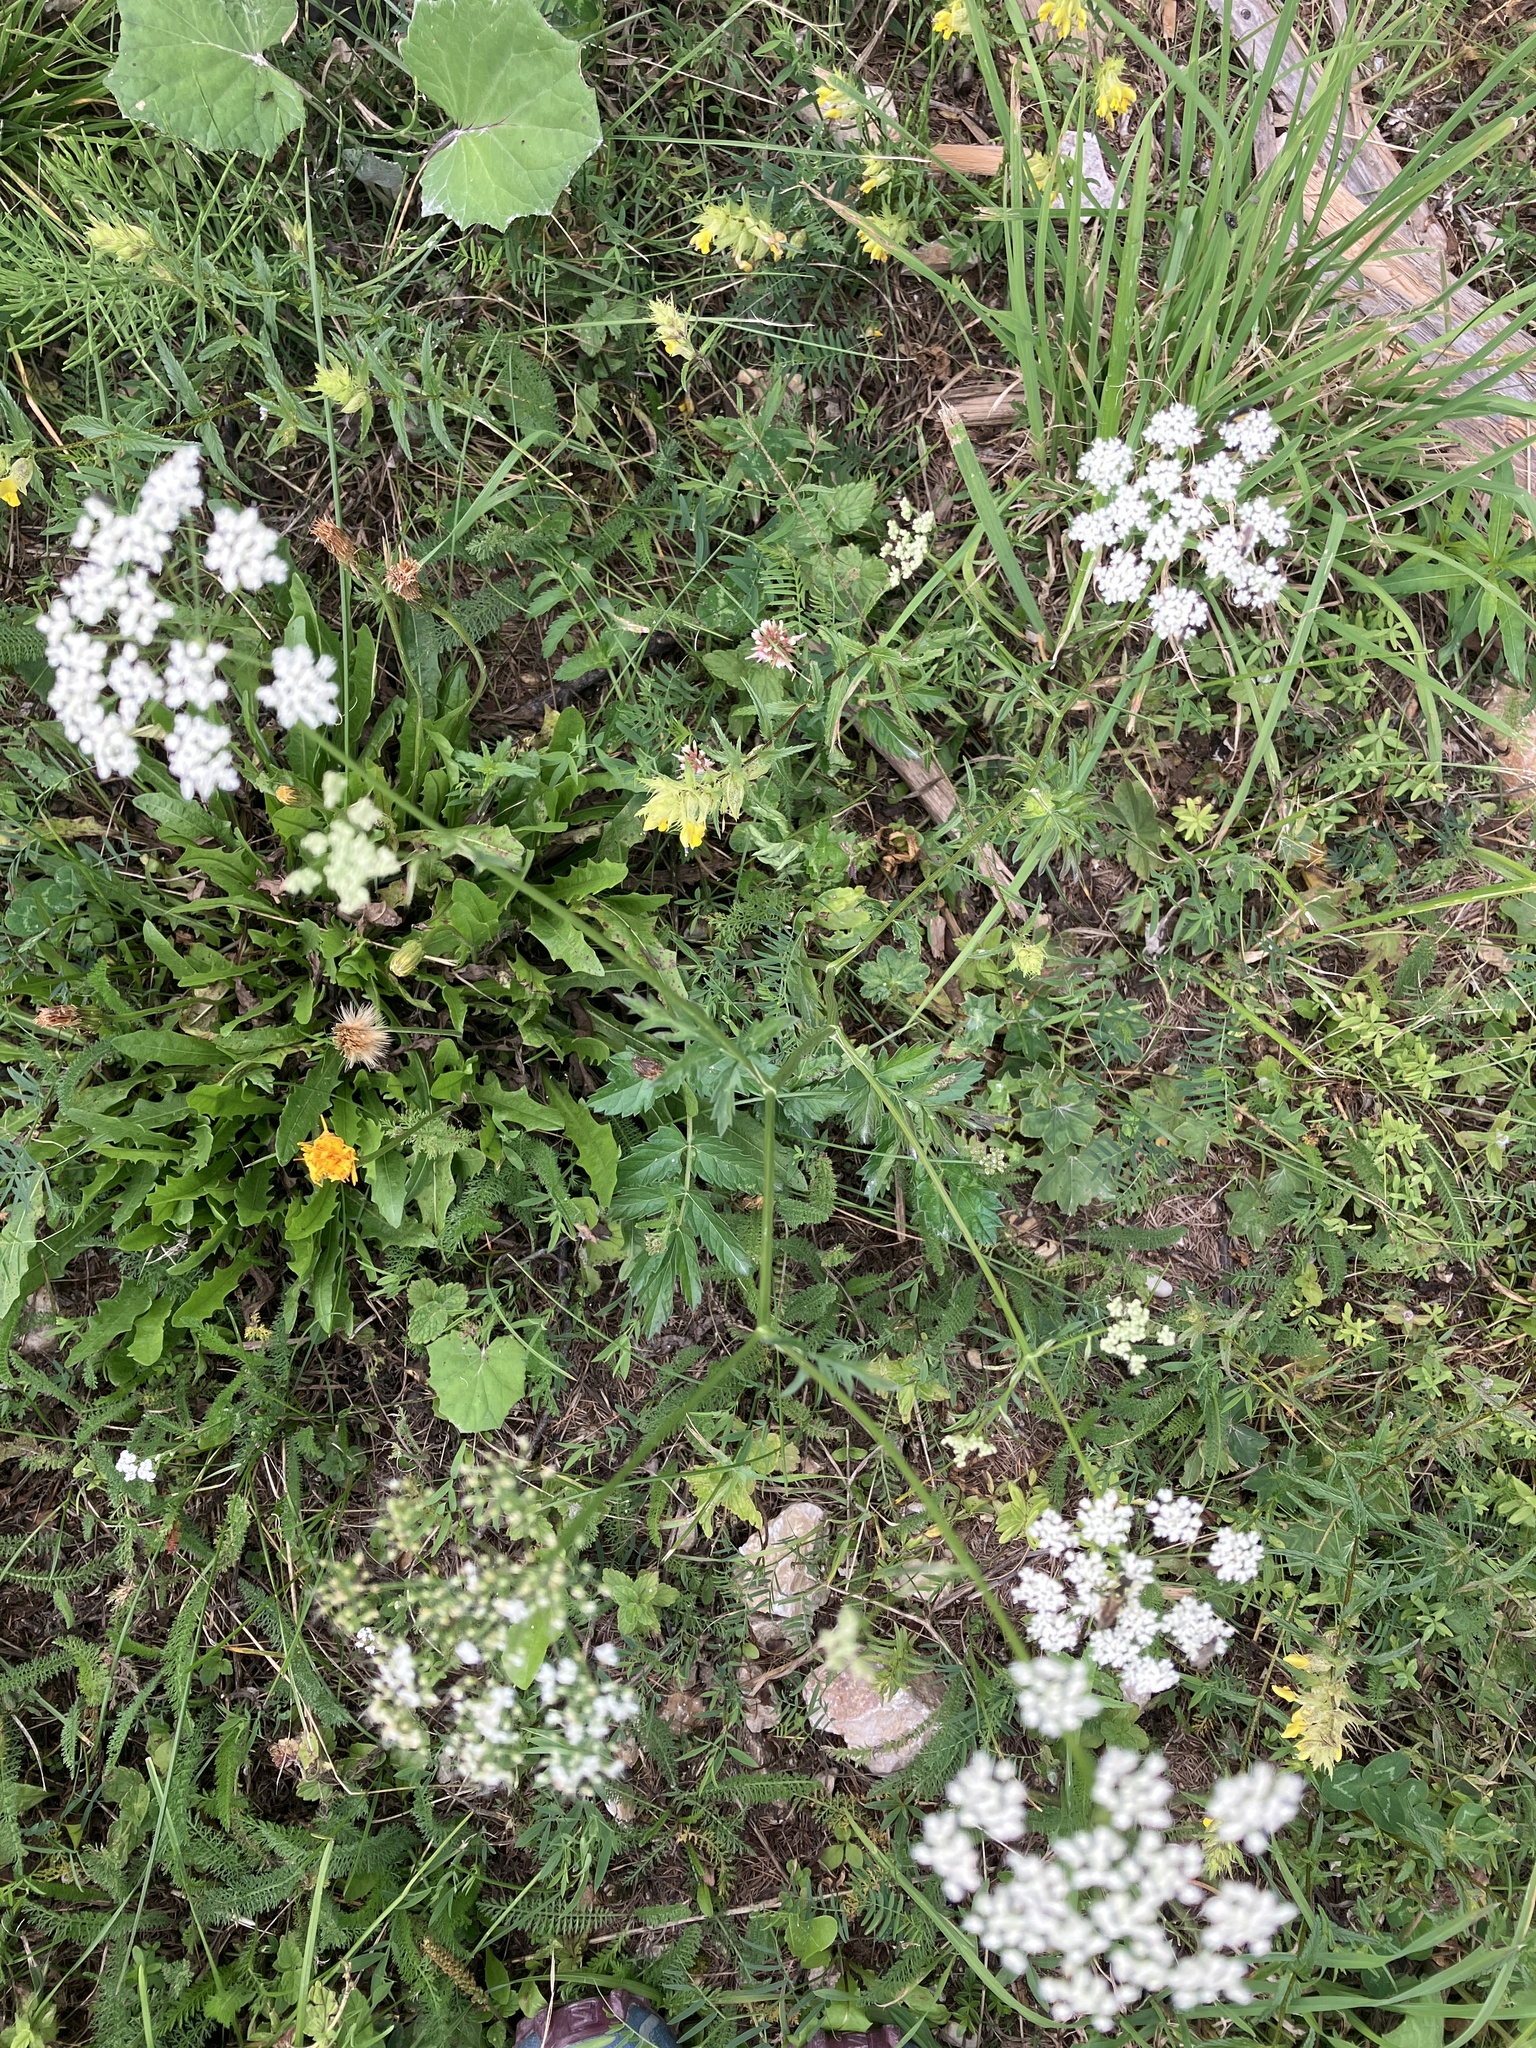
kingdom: Plantae
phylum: Tracheophyta
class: Magnoliopsida
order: Apiales
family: Apiaceae
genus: Pimpinella
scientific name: Pimpinella major
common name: Greater burnet-saxifrage
